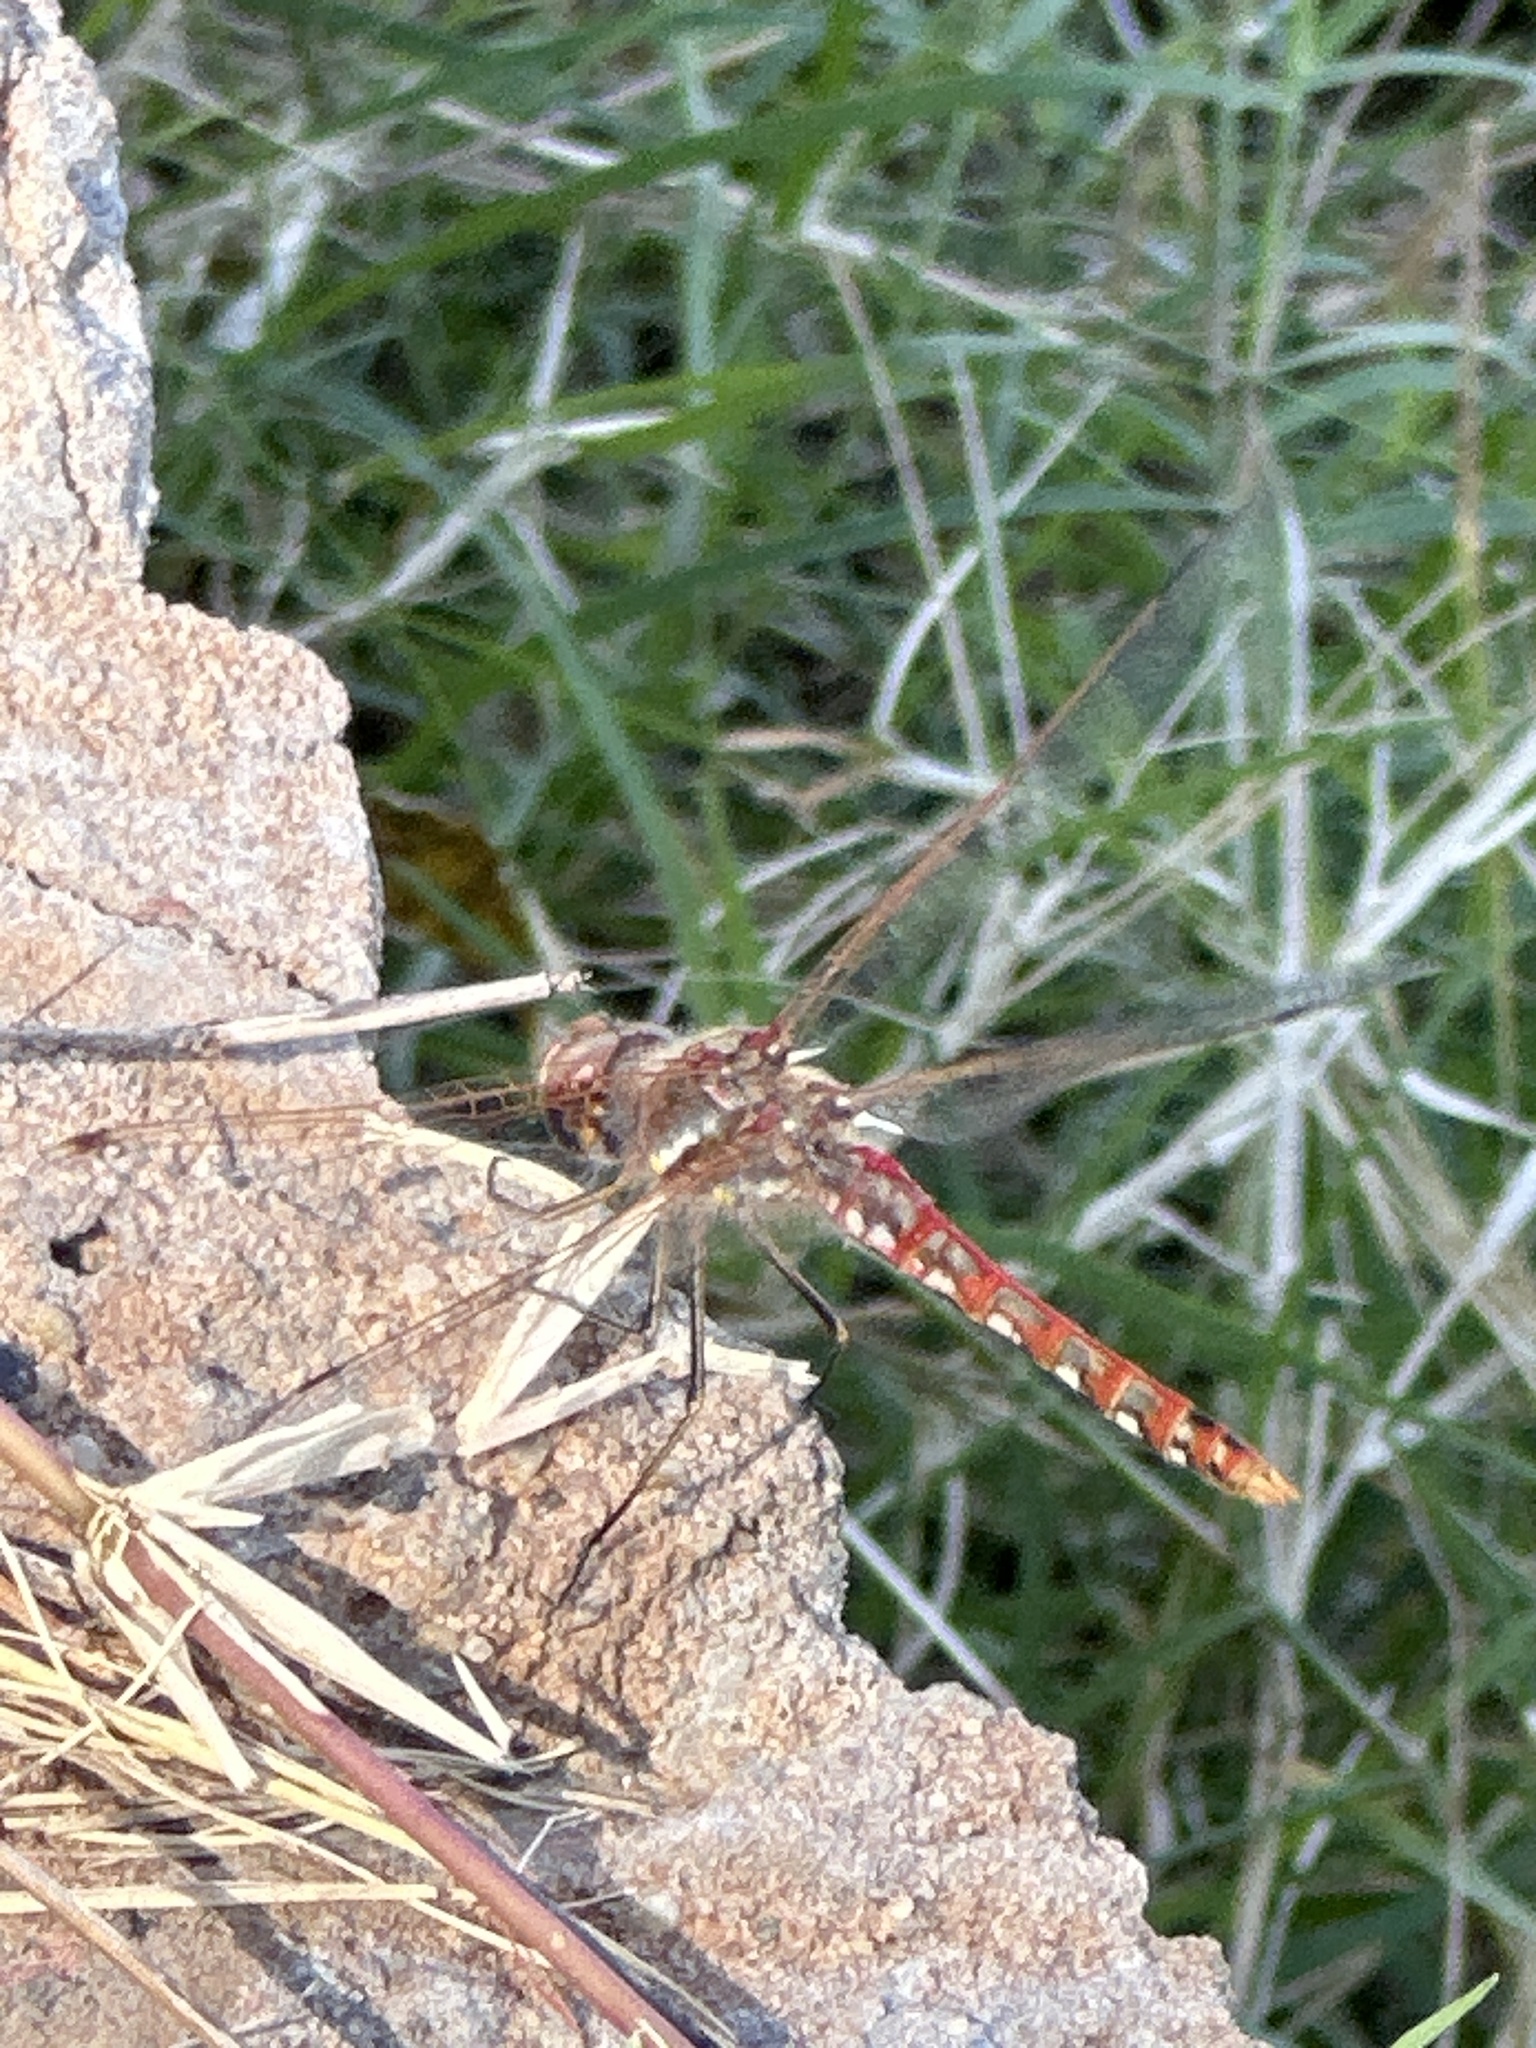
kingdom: Animalia
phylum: Arthropoda
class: Insecta
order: Odonata
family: Libellulidae
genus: Sympetrum
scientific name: Sympetrum corruptum
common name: Variegated meadowhawk
